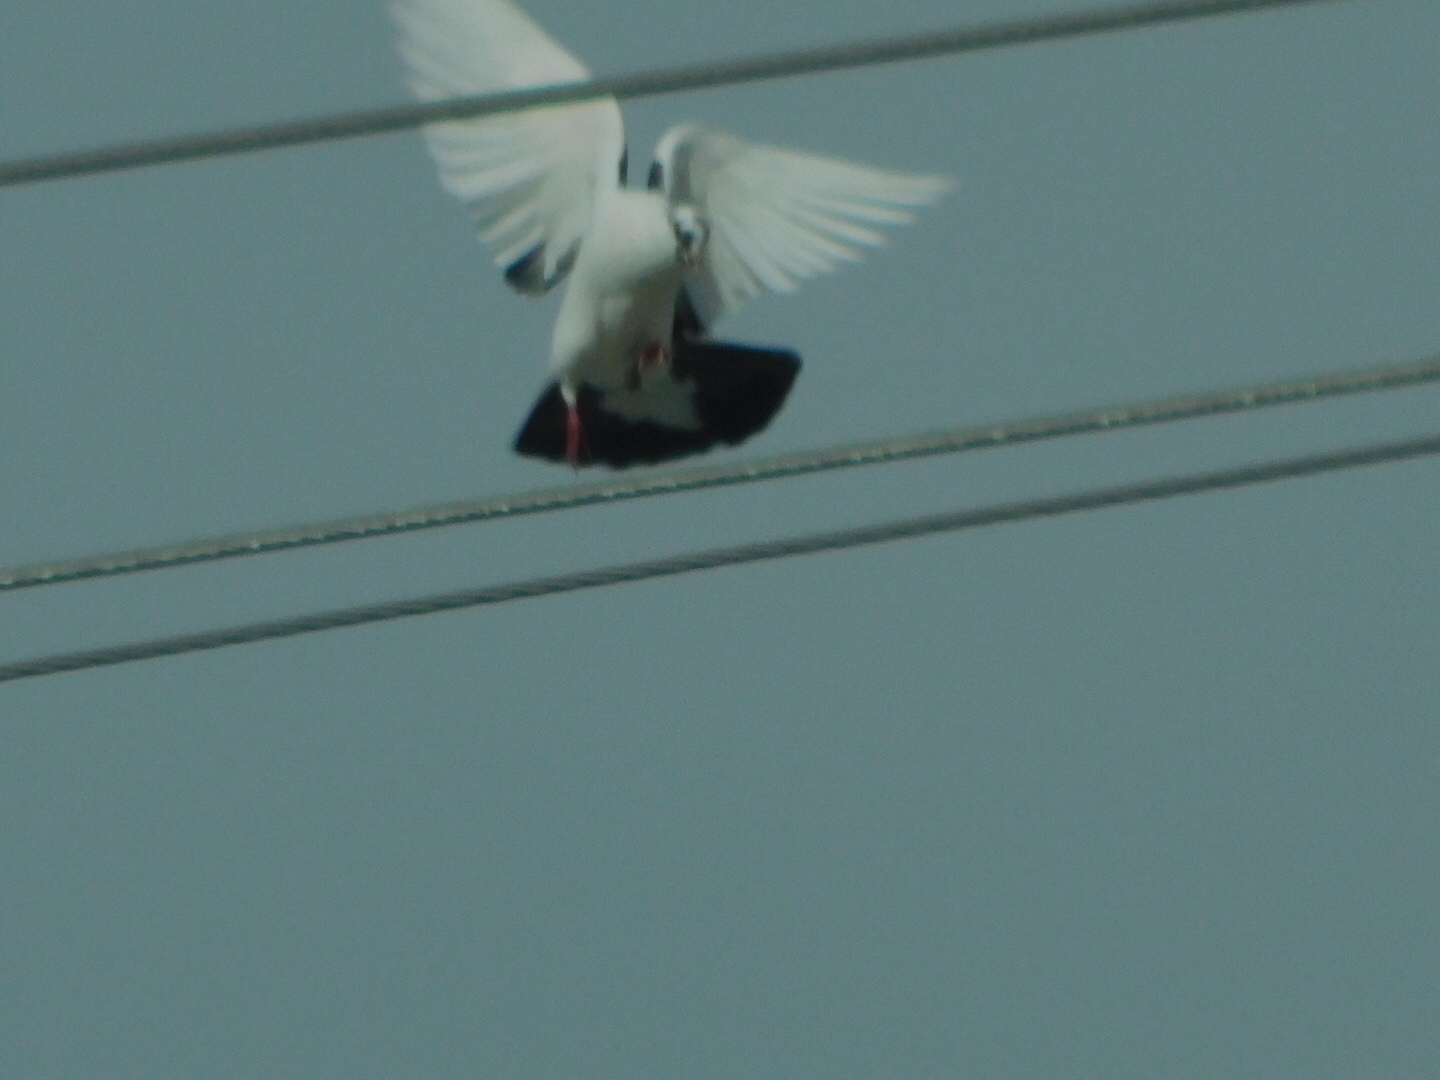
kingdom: Animalia
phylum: Chordata
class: Aves
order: Columbiformes
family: Columbidae
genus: Columba
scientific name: Columba livia
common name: Rock pigeon
